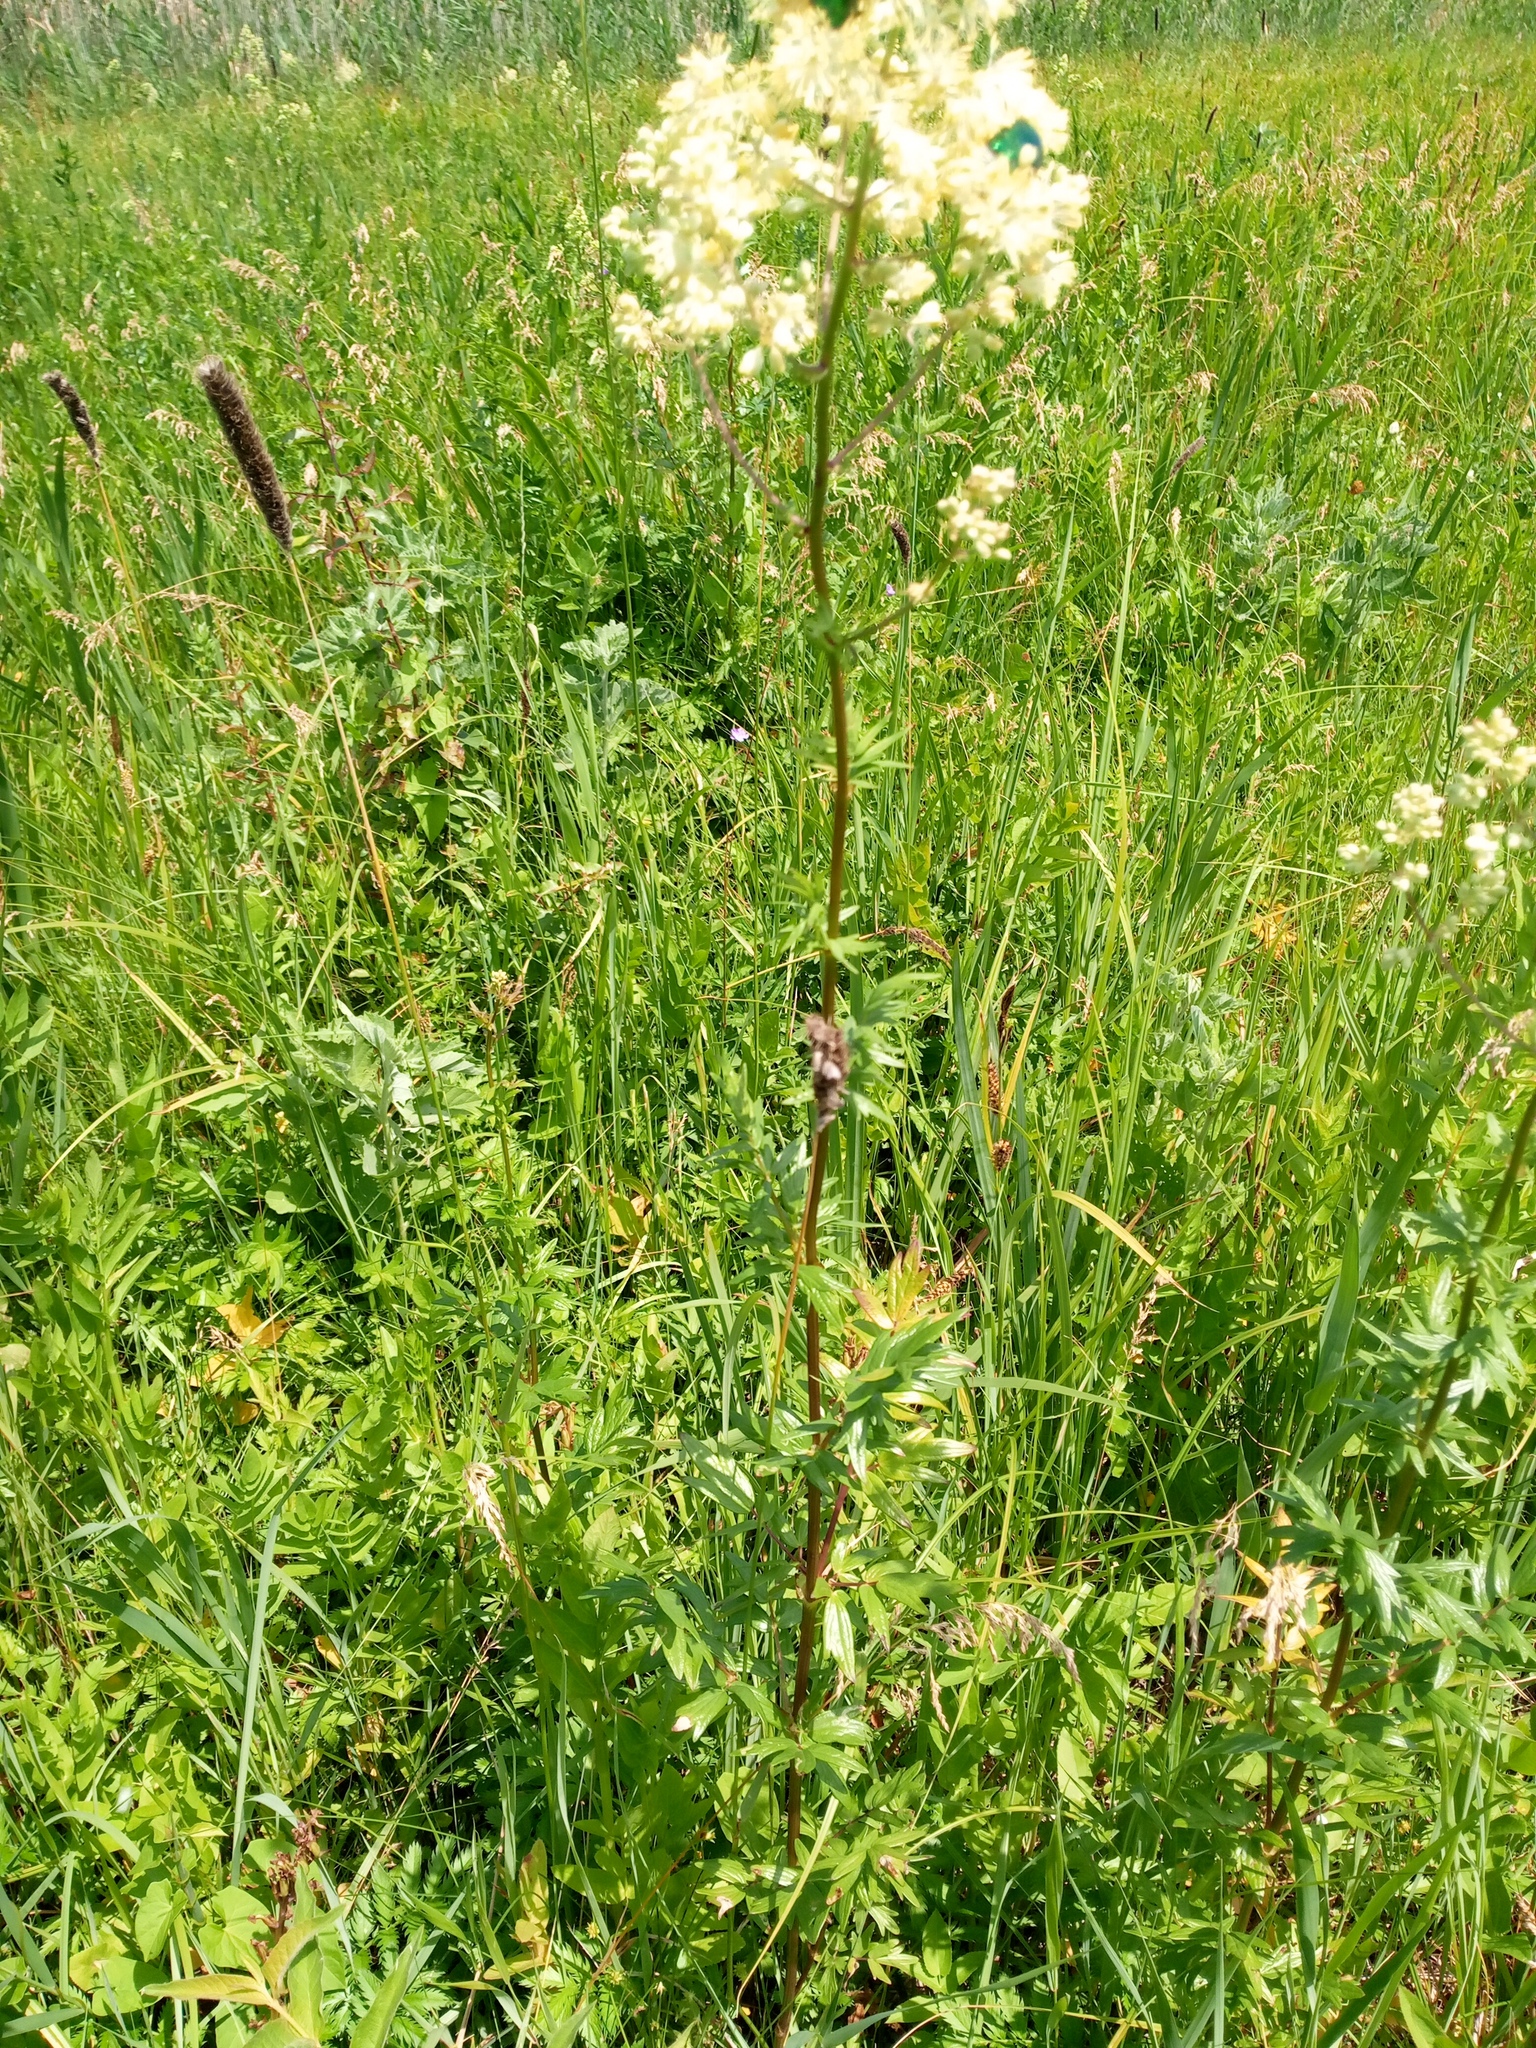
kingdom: Plantae
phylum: Tracheophyta
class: Magnoliopsida
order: Ranunculales
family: Ranunculaceae
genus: Thalictrum
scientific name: Thalictrum simplex
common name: Small meadow-rue
